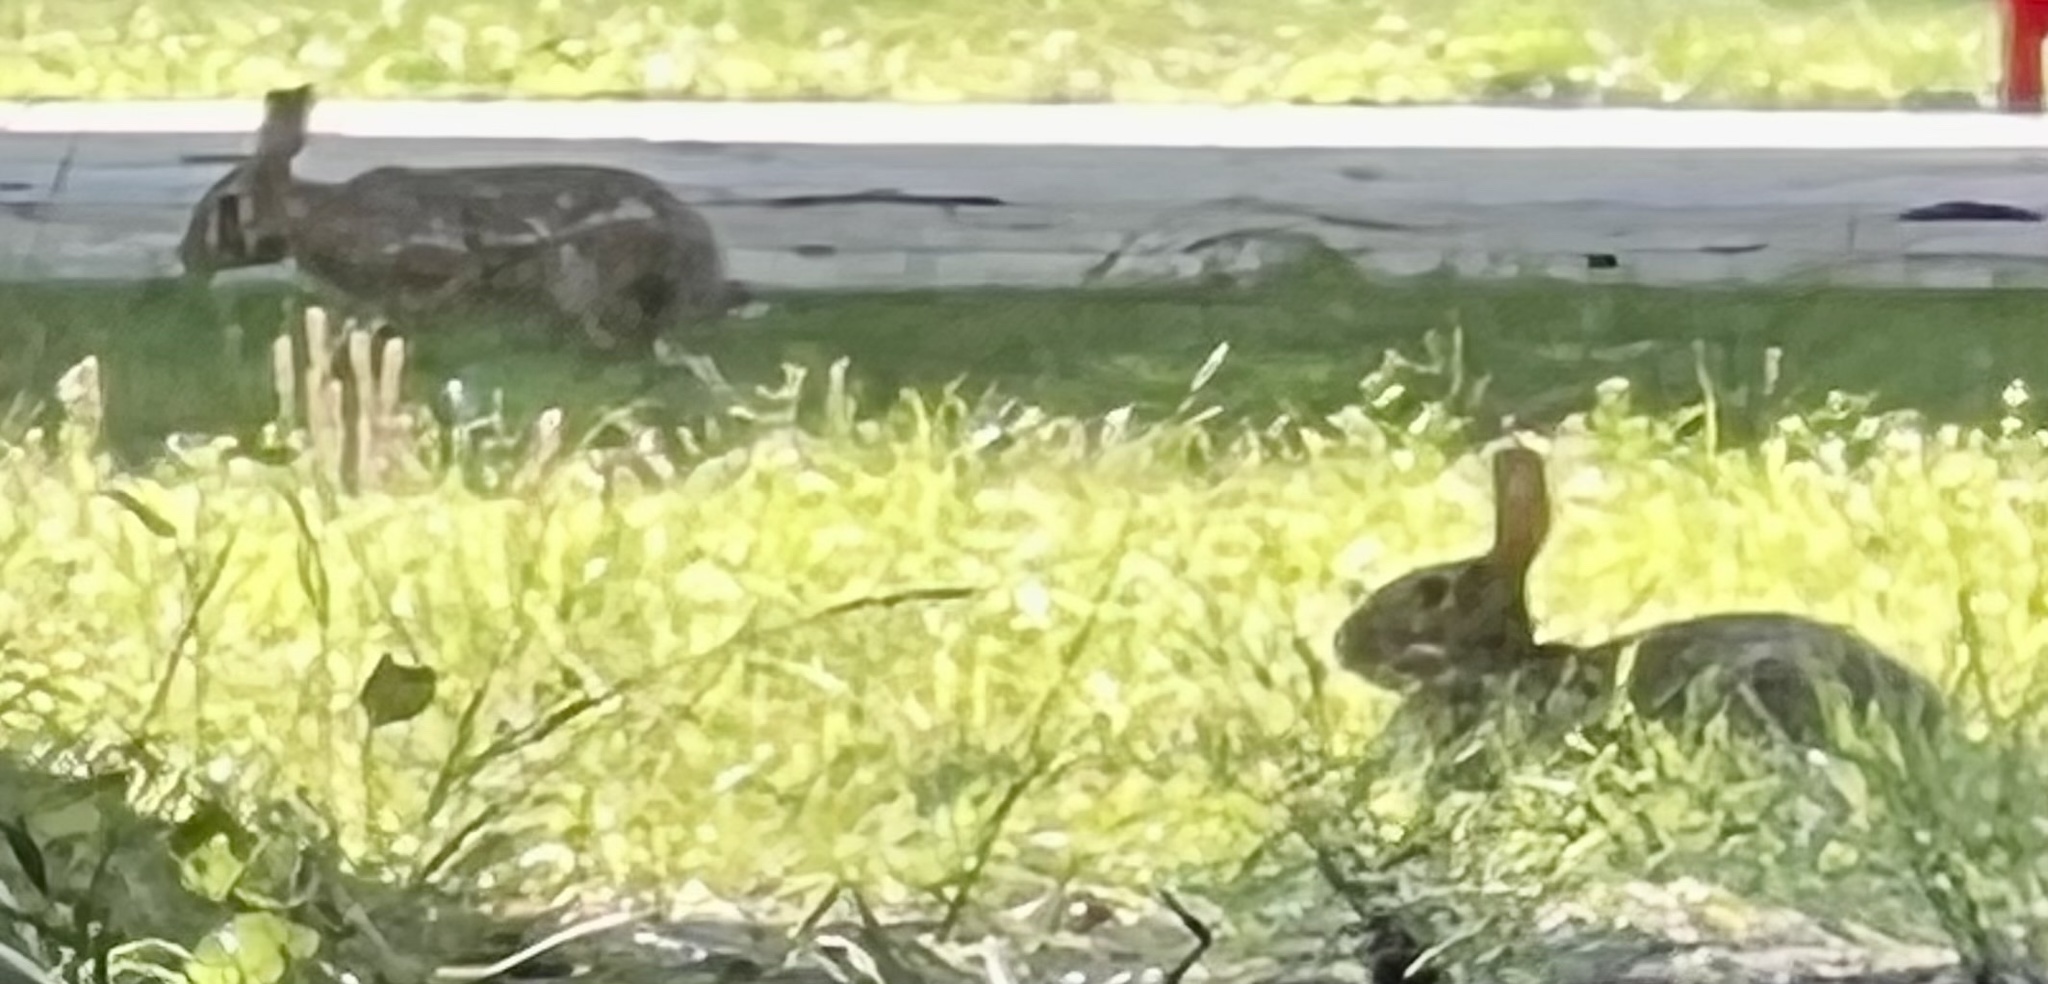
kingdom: Animalia
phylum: Chordata
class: Mammalia
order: Lagomorpha
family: Leporidae
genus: Sylvilagus
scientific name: Sylvilagus floridanus
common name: Eastern cottontail
